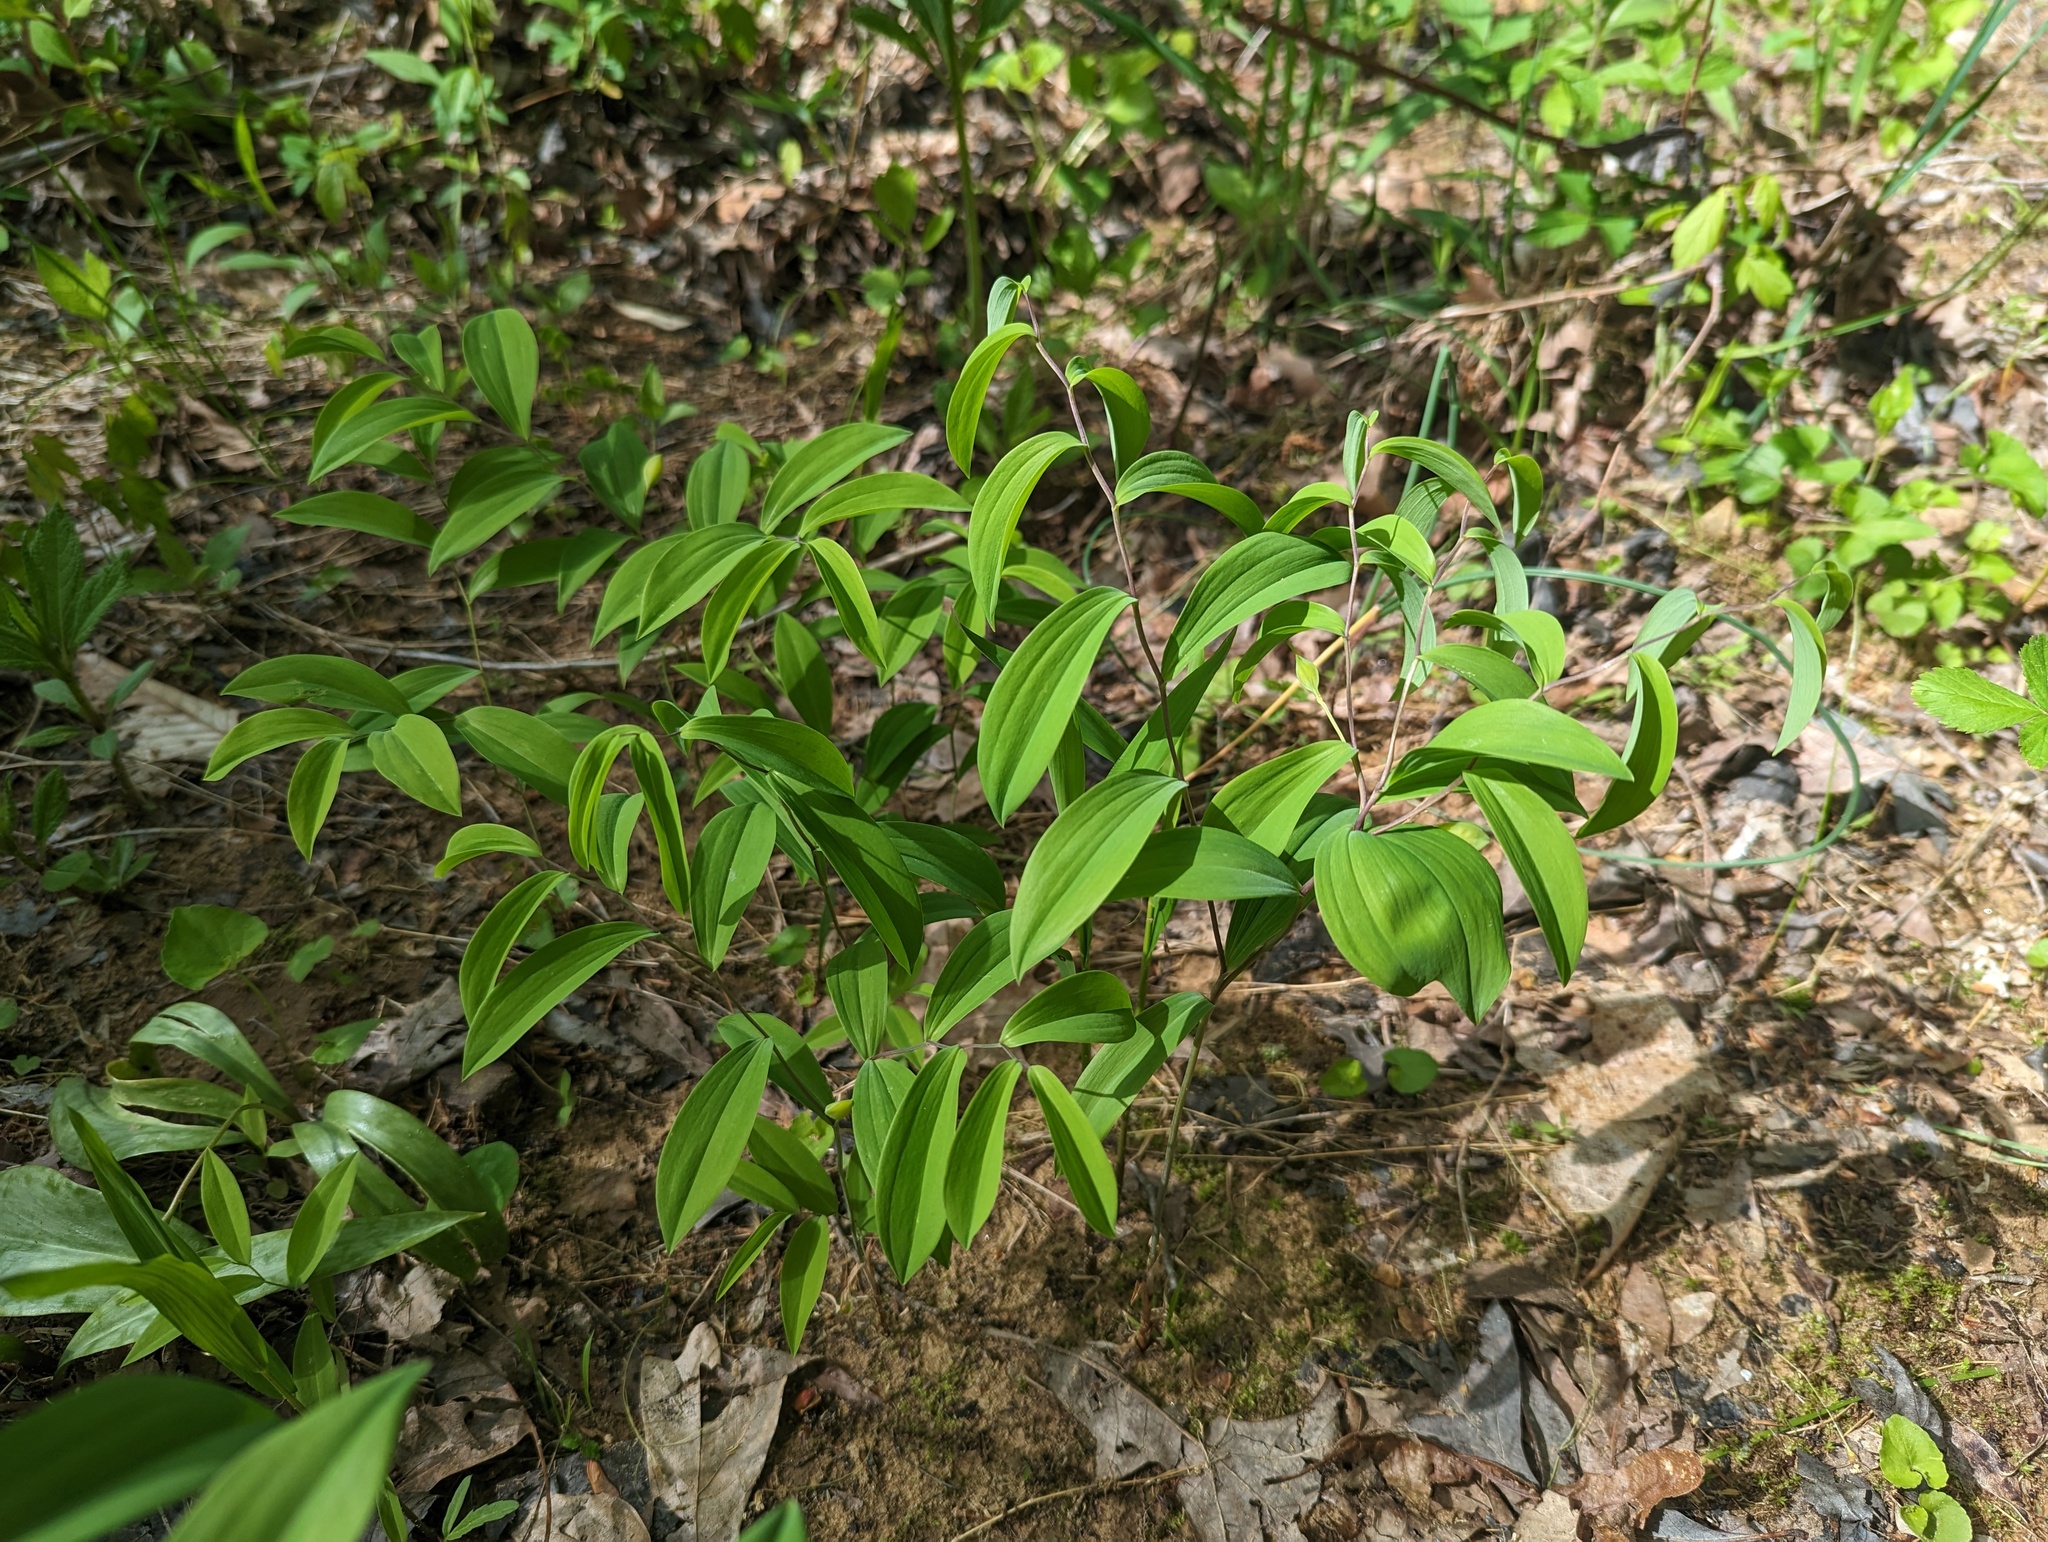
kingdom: Plantae
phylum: Tracheophyta
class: Liliopsida
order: Liliales
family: Colchicaceae
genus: Uvularia
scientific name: Uvularia sessilifolia
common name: Straw-lily
